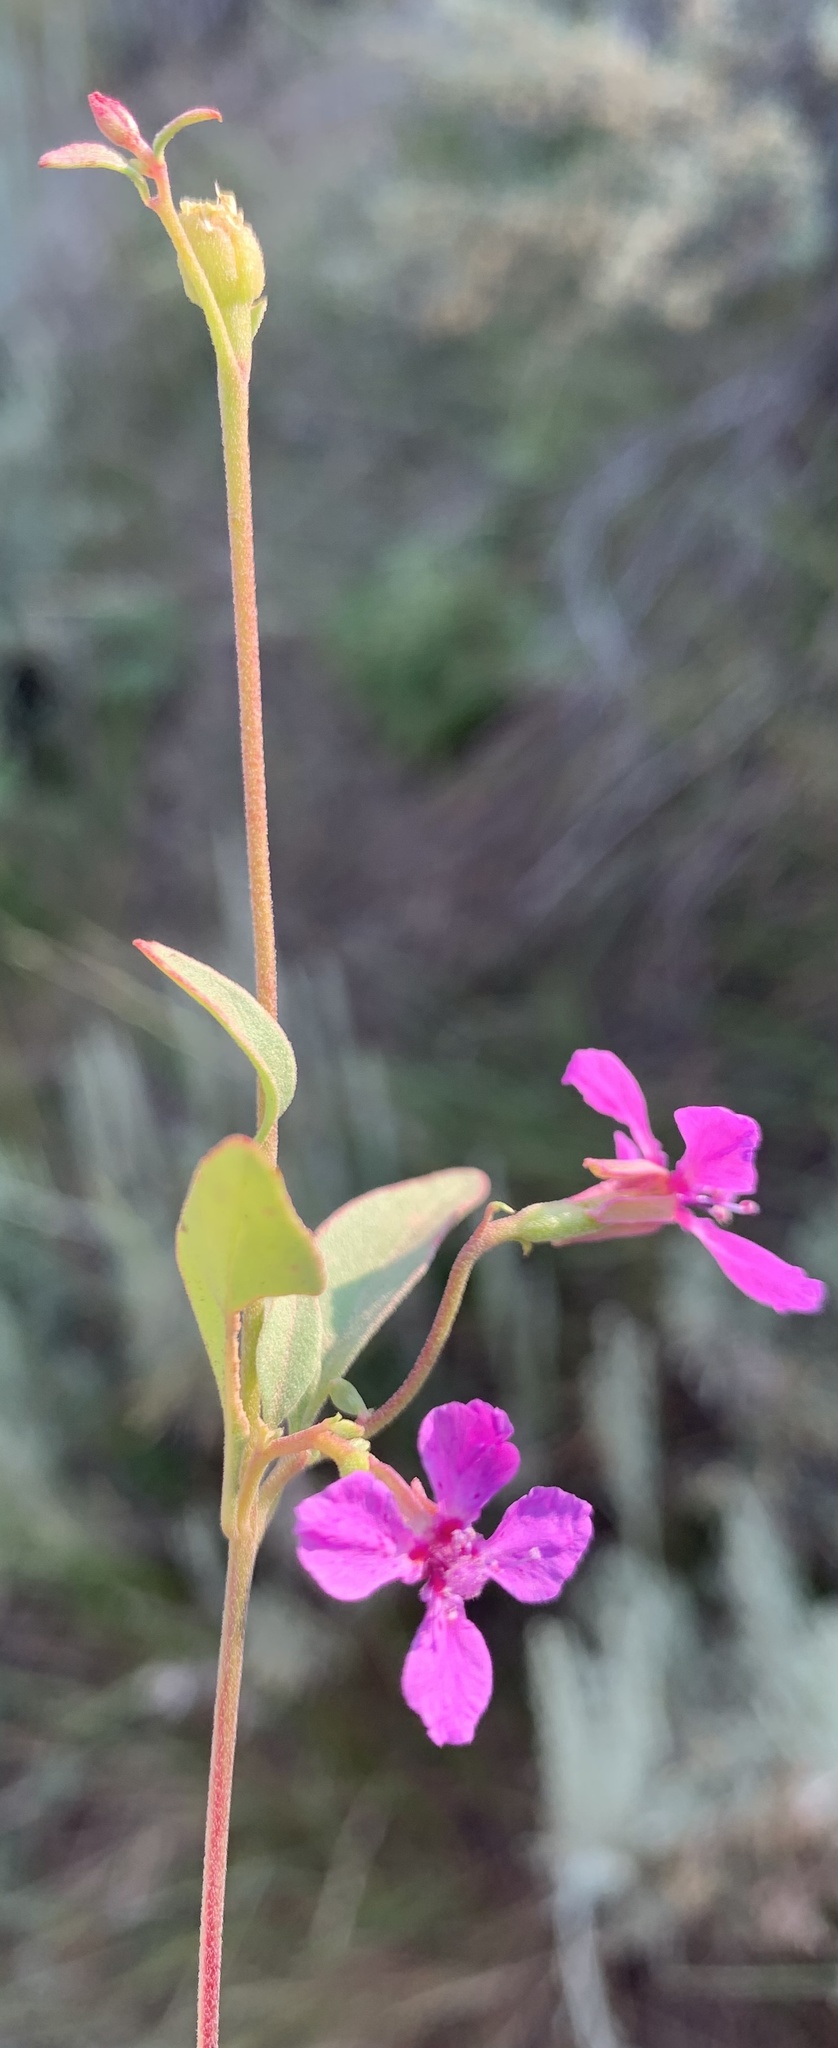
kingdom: Plantae
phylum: Tracheophyta
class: Magnoliopsida
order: Myrtales
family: Onagraceae
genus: Clarkia
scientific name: Clarkia rhomboidea
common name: Broadleaf clarkia
